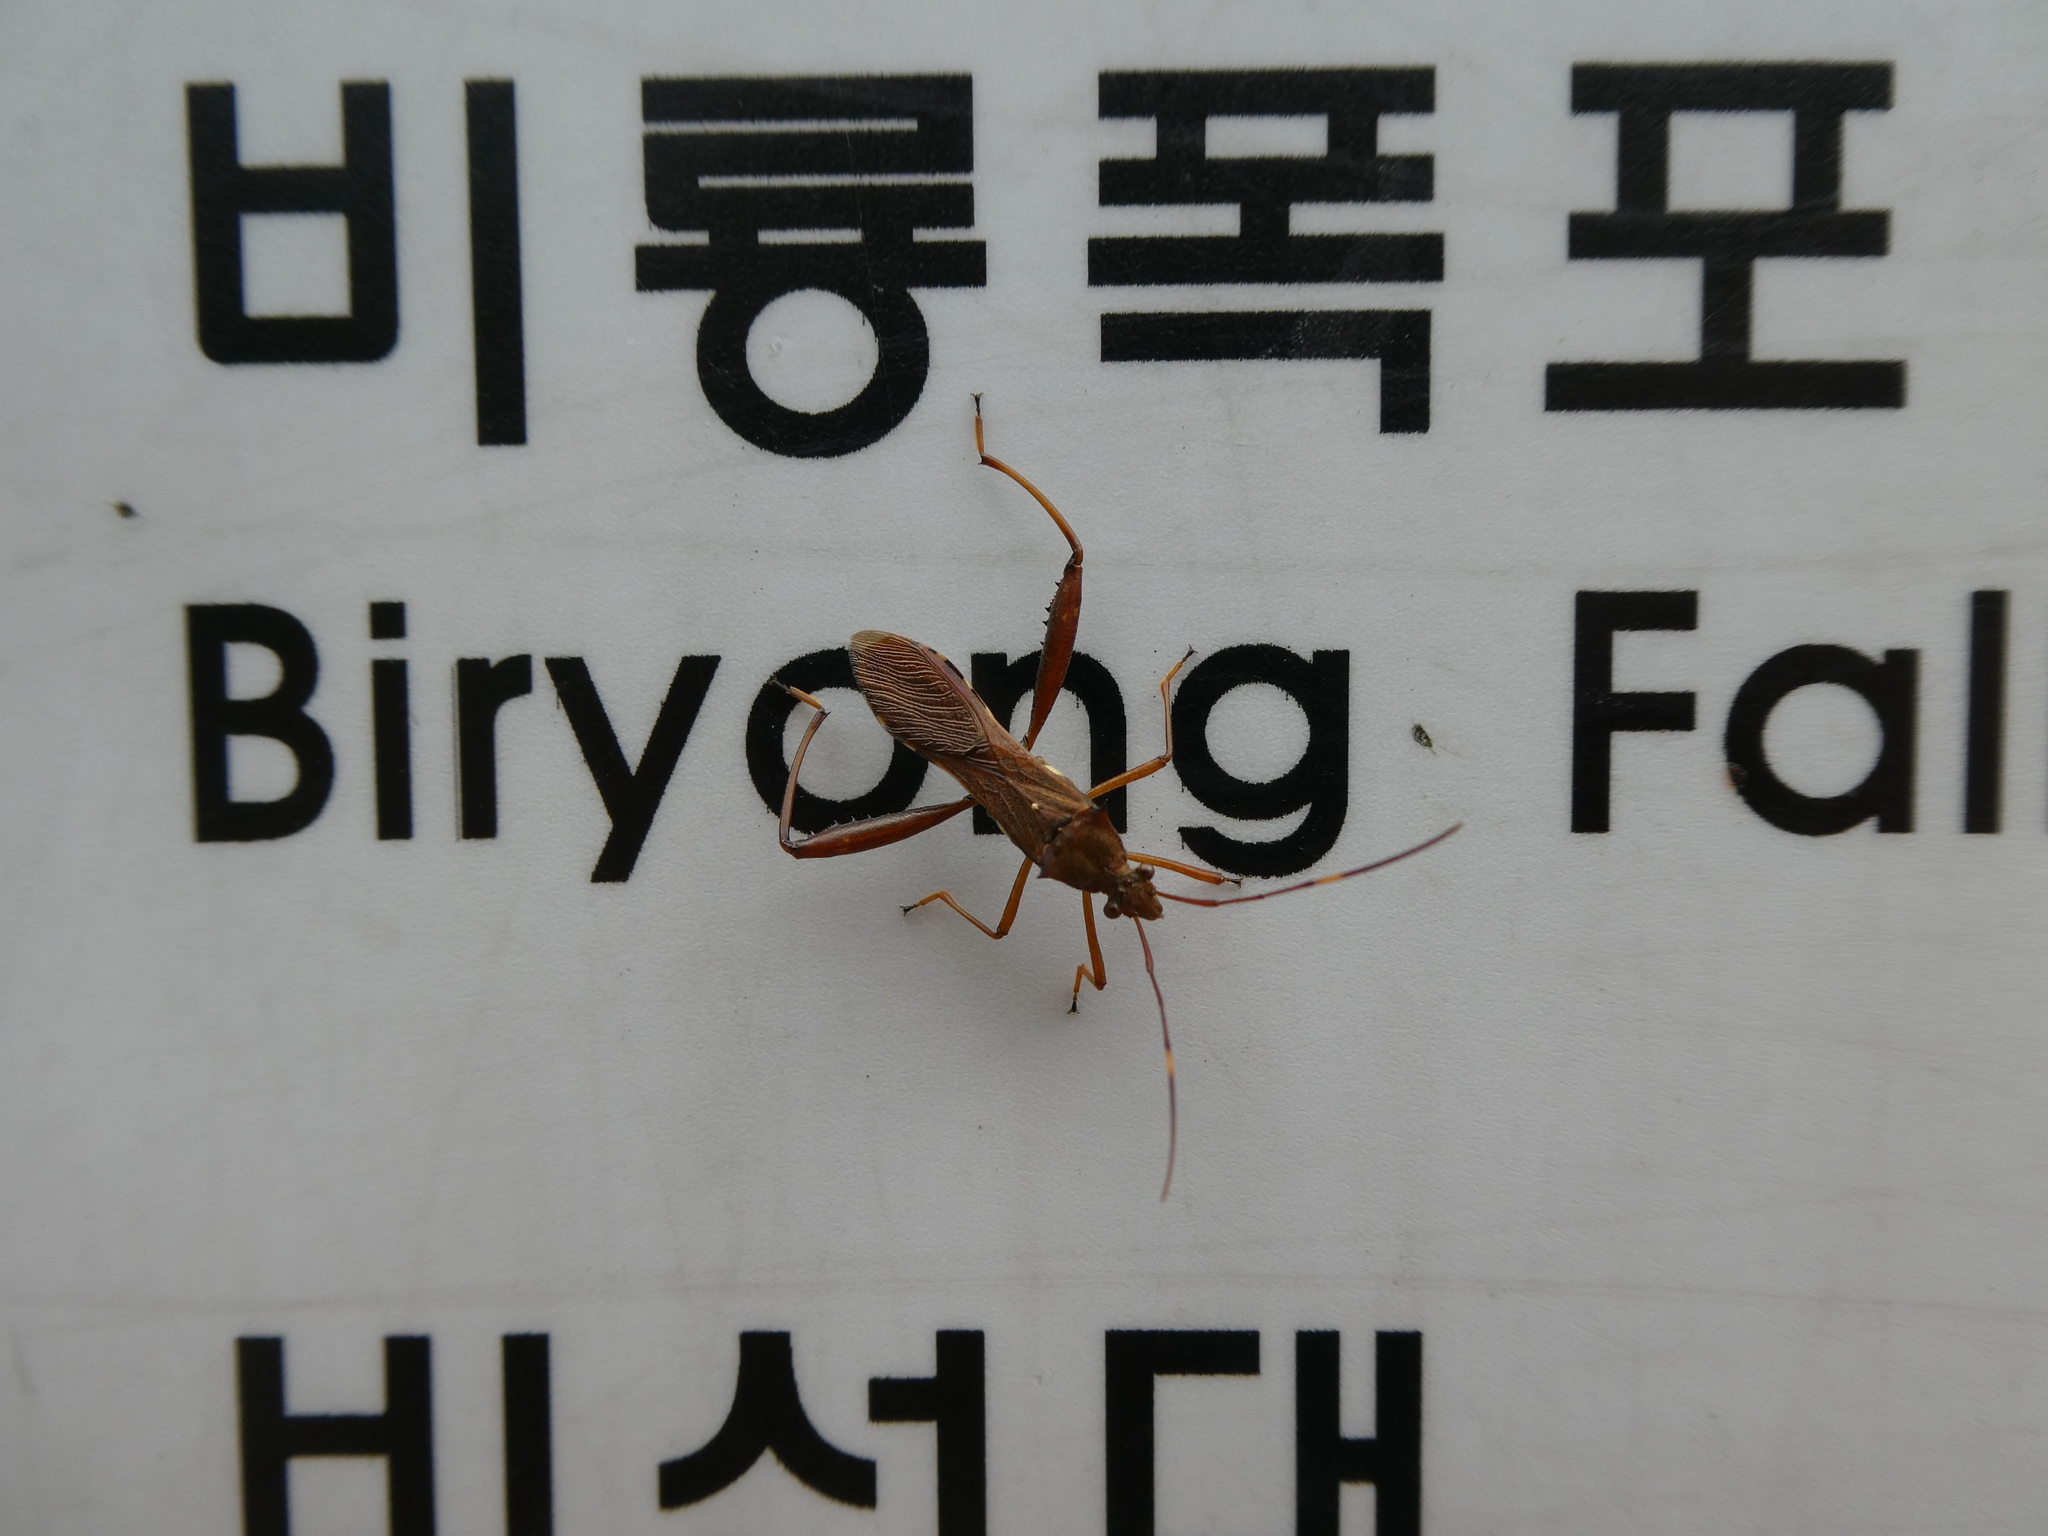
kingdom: Animalia
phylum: Arthropoda
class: Insecta
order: Hemiptera
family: Alydidae
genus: Riptortus
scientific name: Riptortus pedestris
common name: Bean bug
